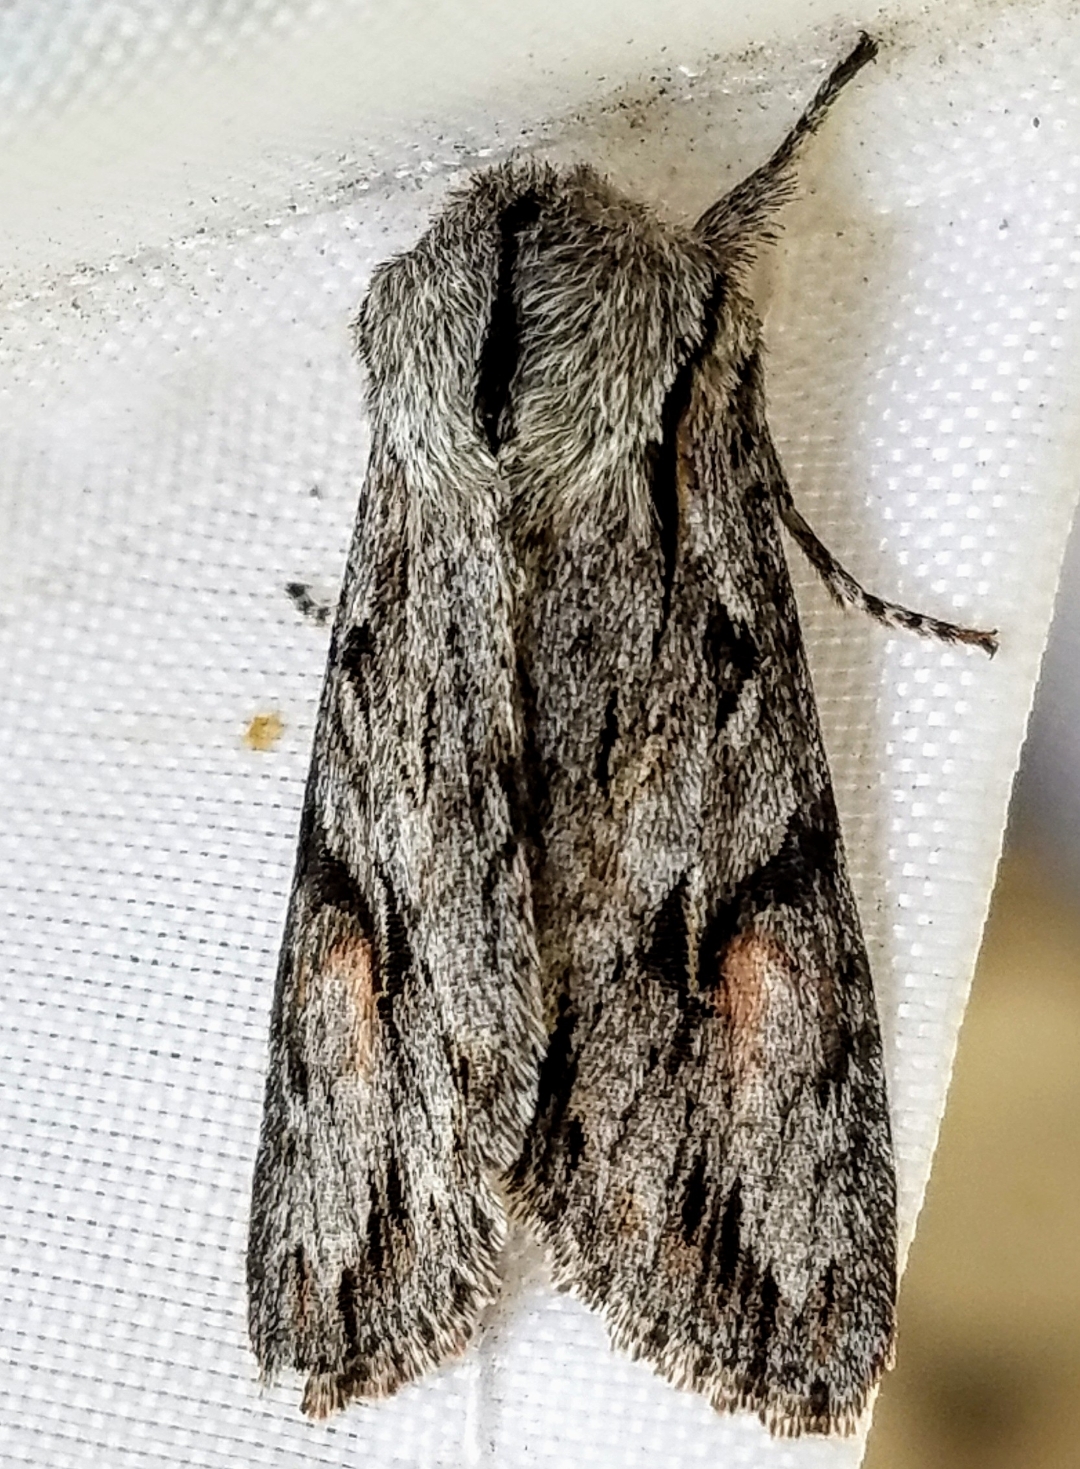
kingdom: Animalia
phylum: Arthropoda
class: Insecta
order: Lepidoptera
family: Noctuidae
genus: Egira
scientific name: Egira crucialis
